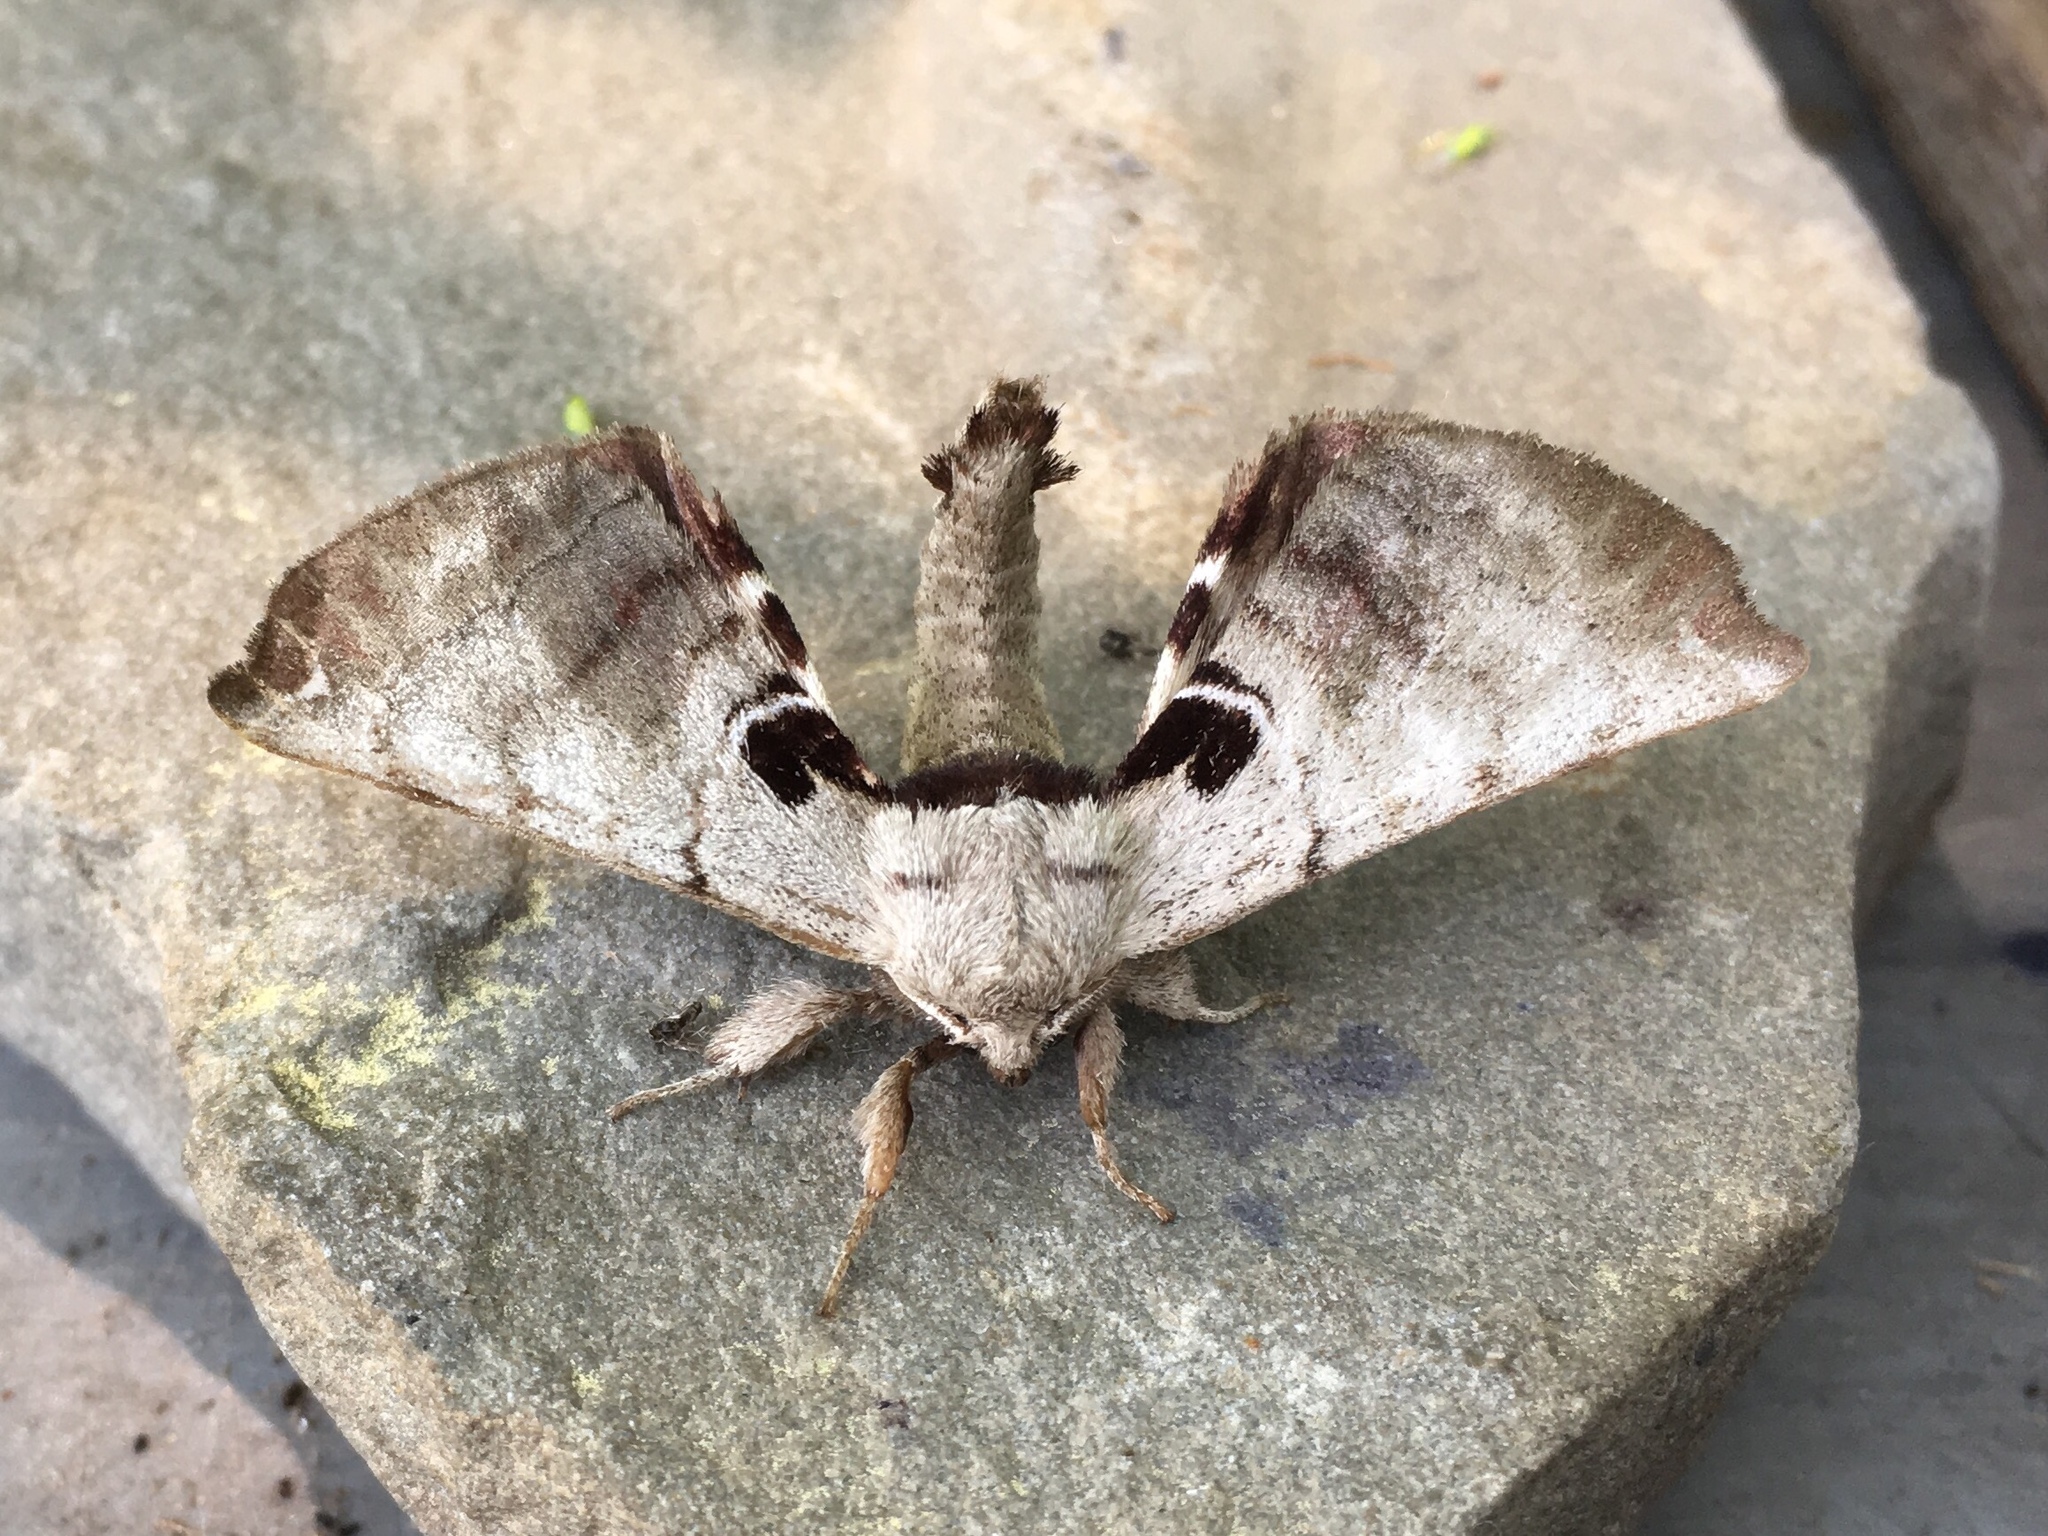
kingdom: Animalia
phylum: Arthropoda
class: Insecta
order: Lepidoptera
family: Apatelodidae
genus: Hygrochroa
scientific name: Hygrochroa Apatelodes torrefacta
